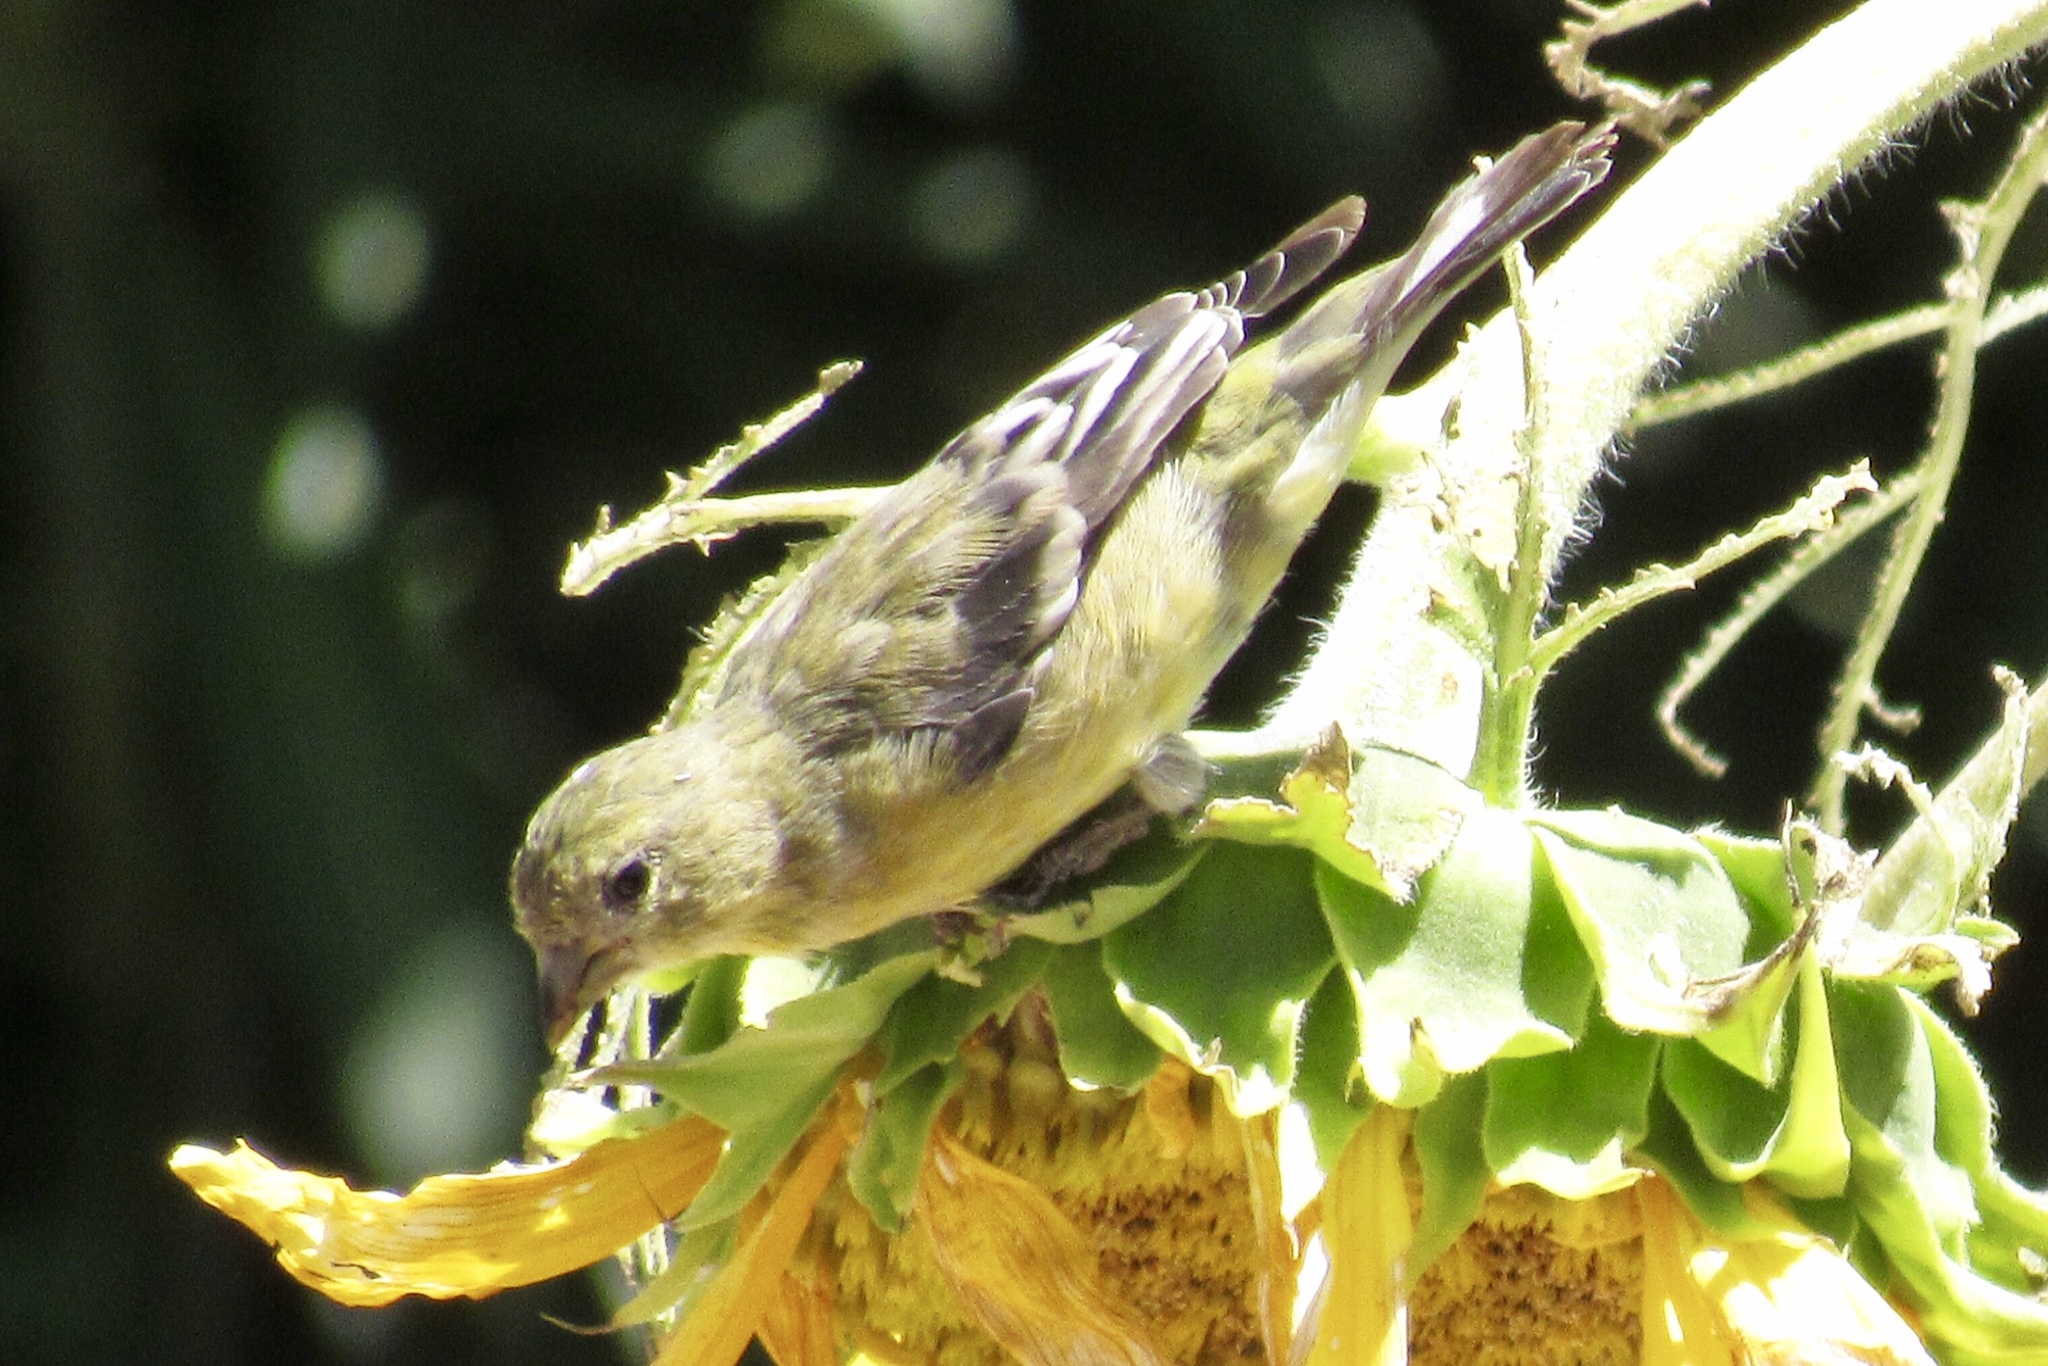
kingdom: Animalia
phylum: Chordata
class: Aves
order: Passeriformes
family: Fringillidae
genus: Spinus
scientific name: Spinus psaltria
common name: Lesser goldfinch
